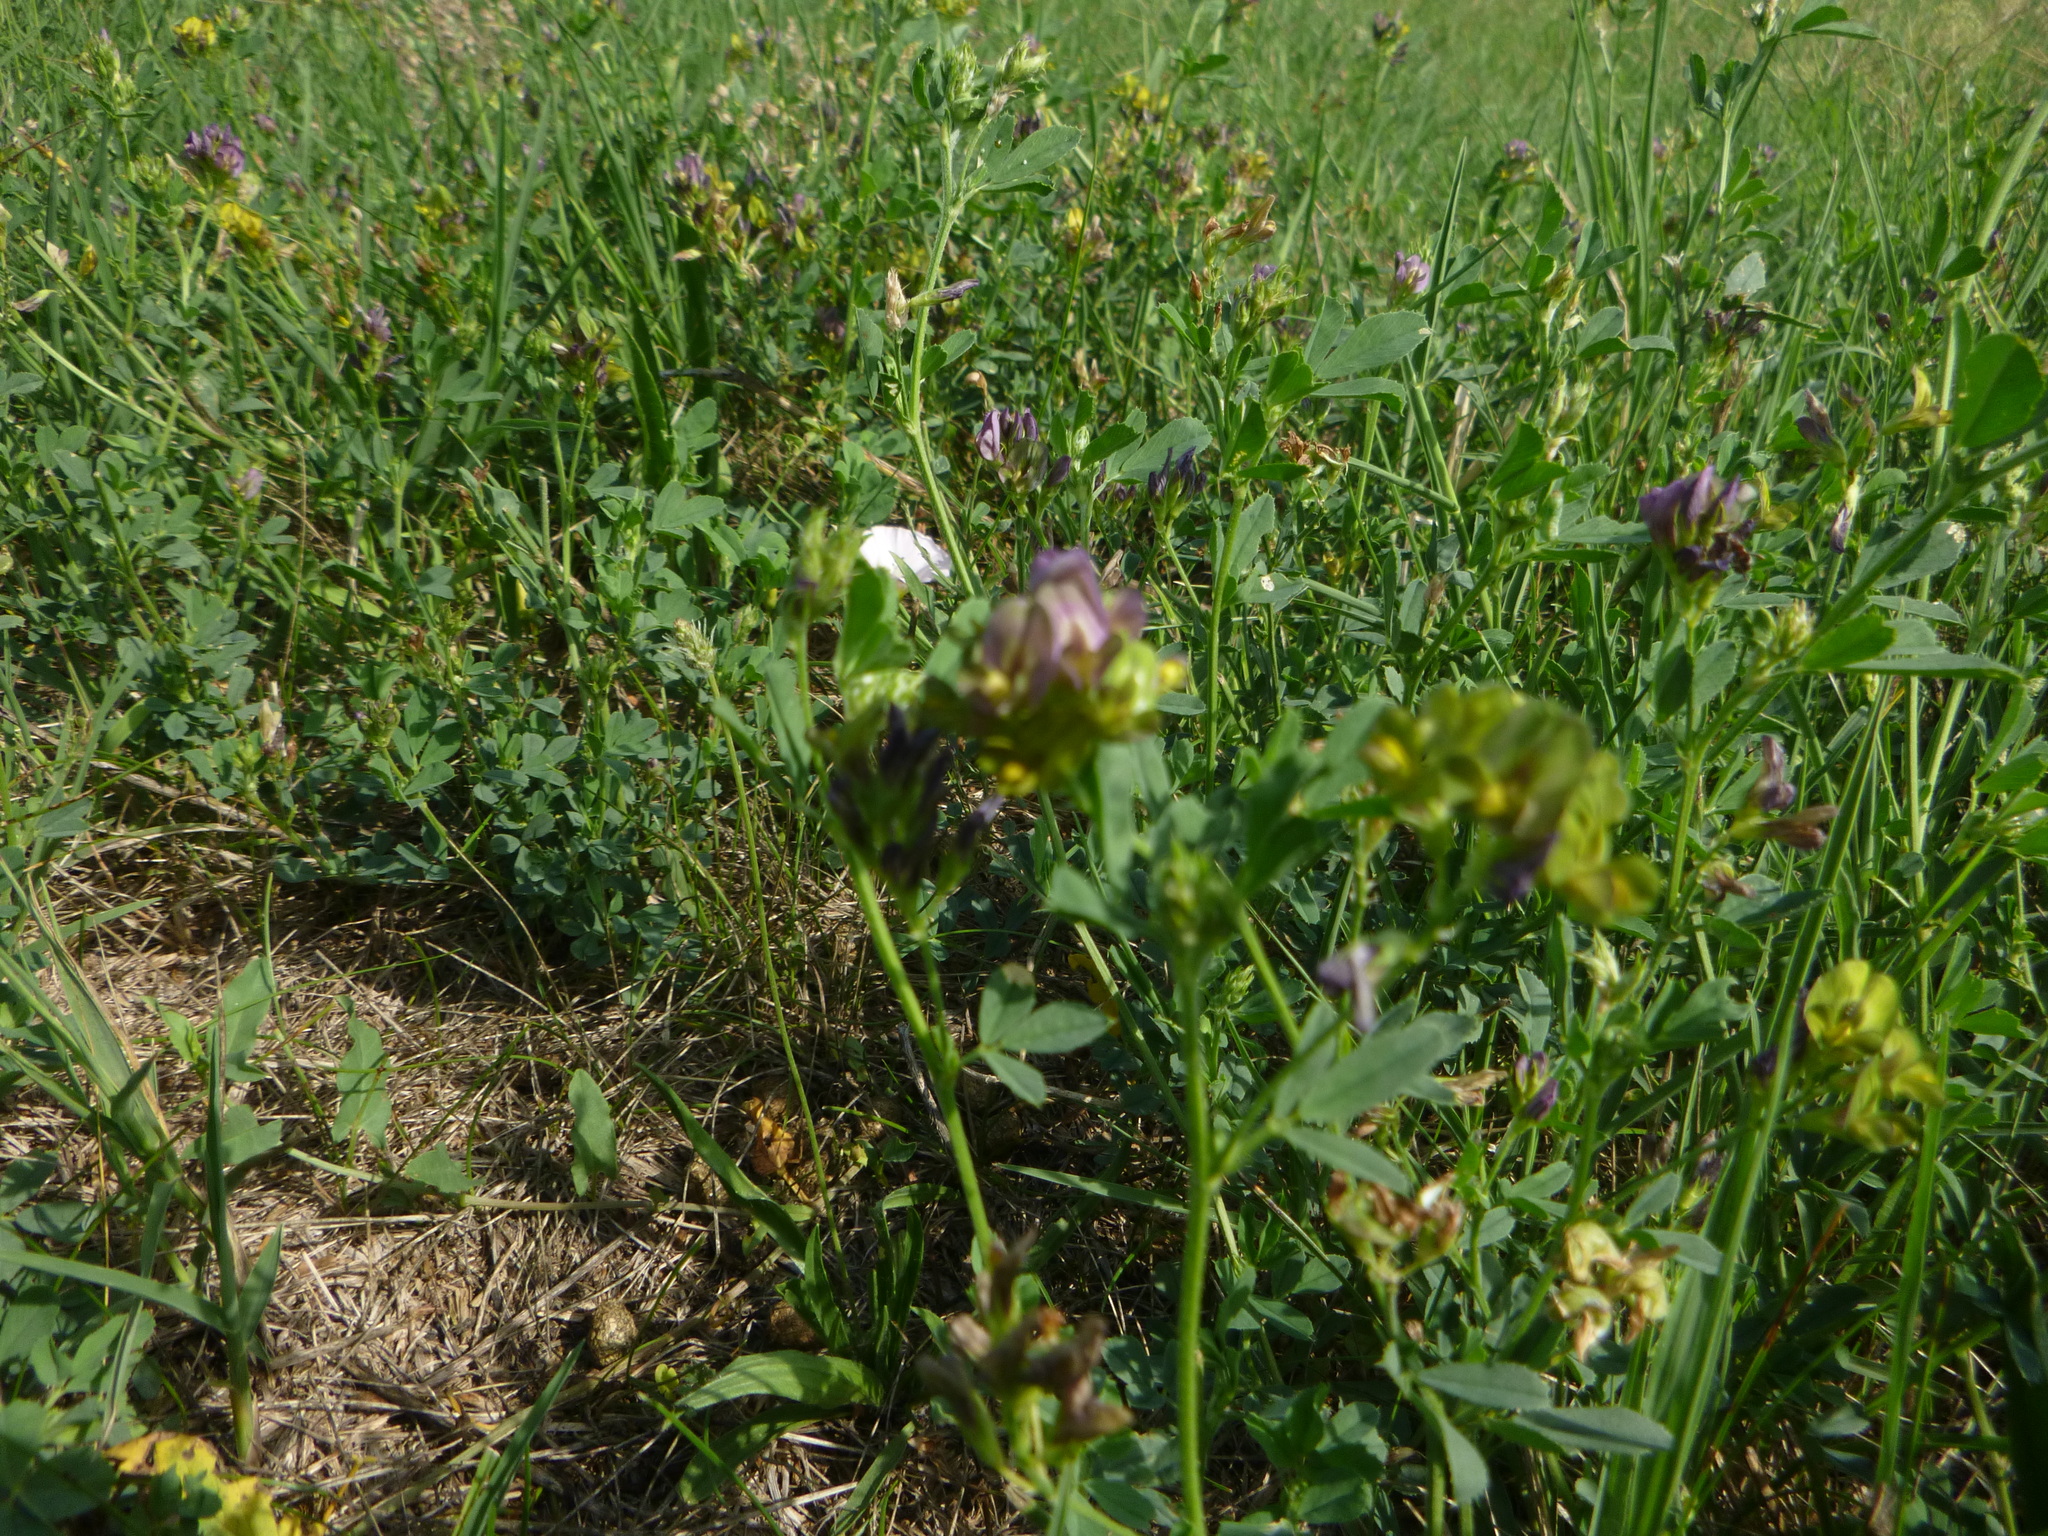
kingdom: Plantae
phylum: Tracheophyta
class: Magnoliopsida
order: Fabales
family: Fabaceae
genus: Medicago
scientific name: Medicago varia
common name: Sand lucerne
